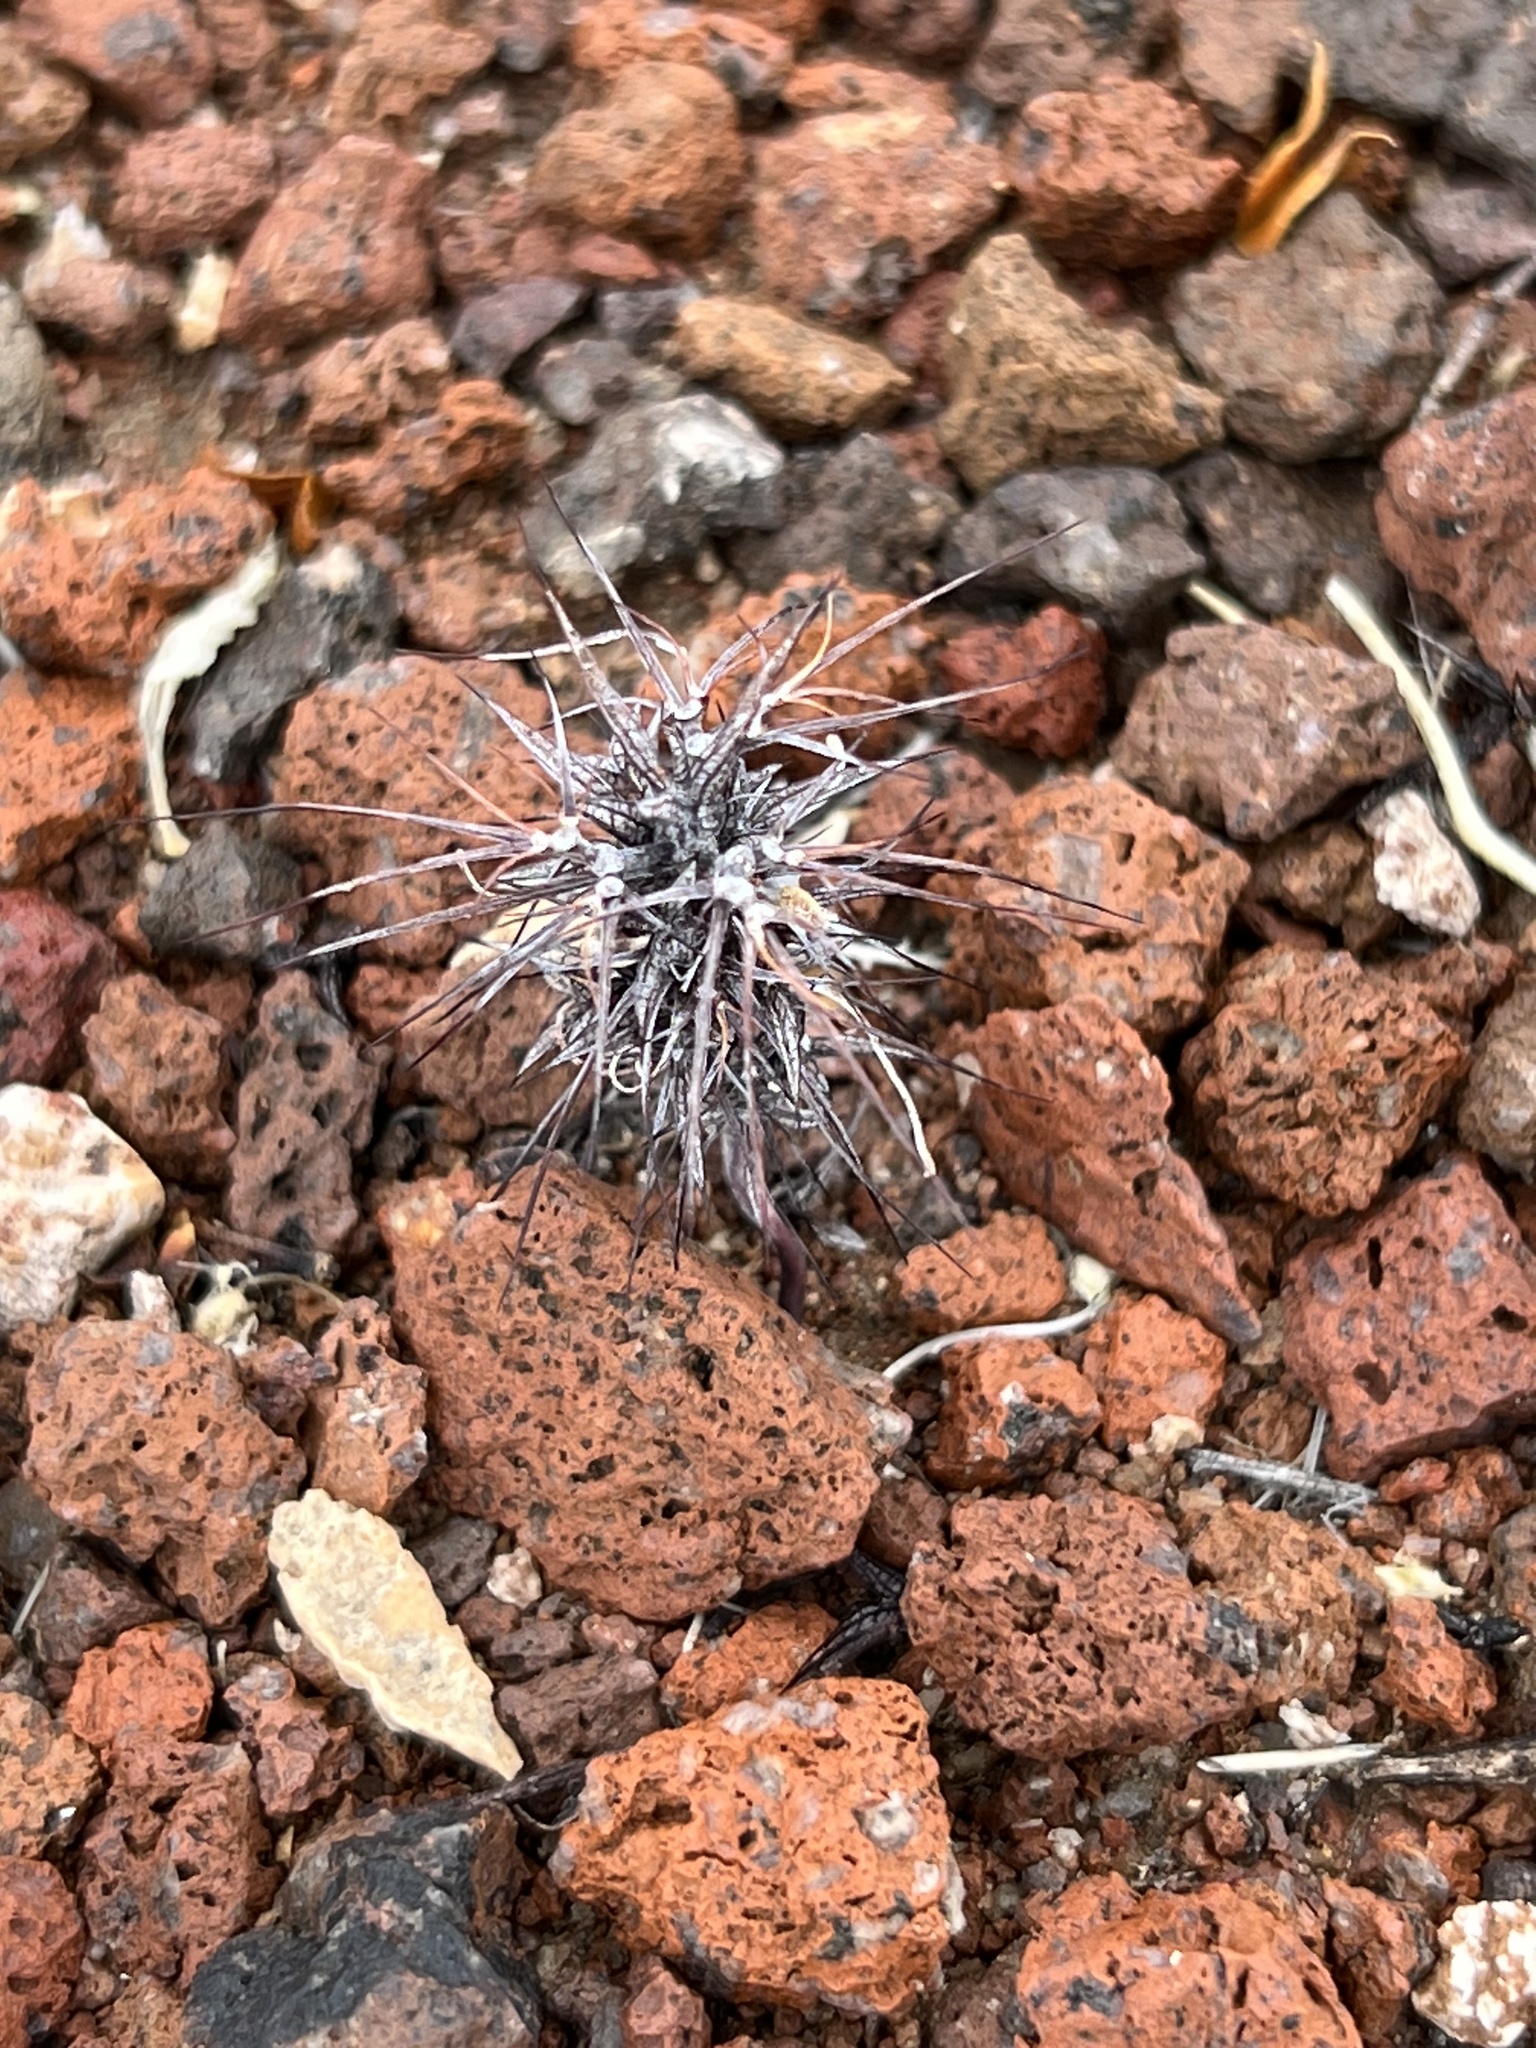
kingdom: Plantae
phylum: Tracheophyta
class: Magnoliopsida
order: Caryophyllales
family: Polygonaceae
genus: Chorizanthe
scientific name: Chorizanthe rigida
